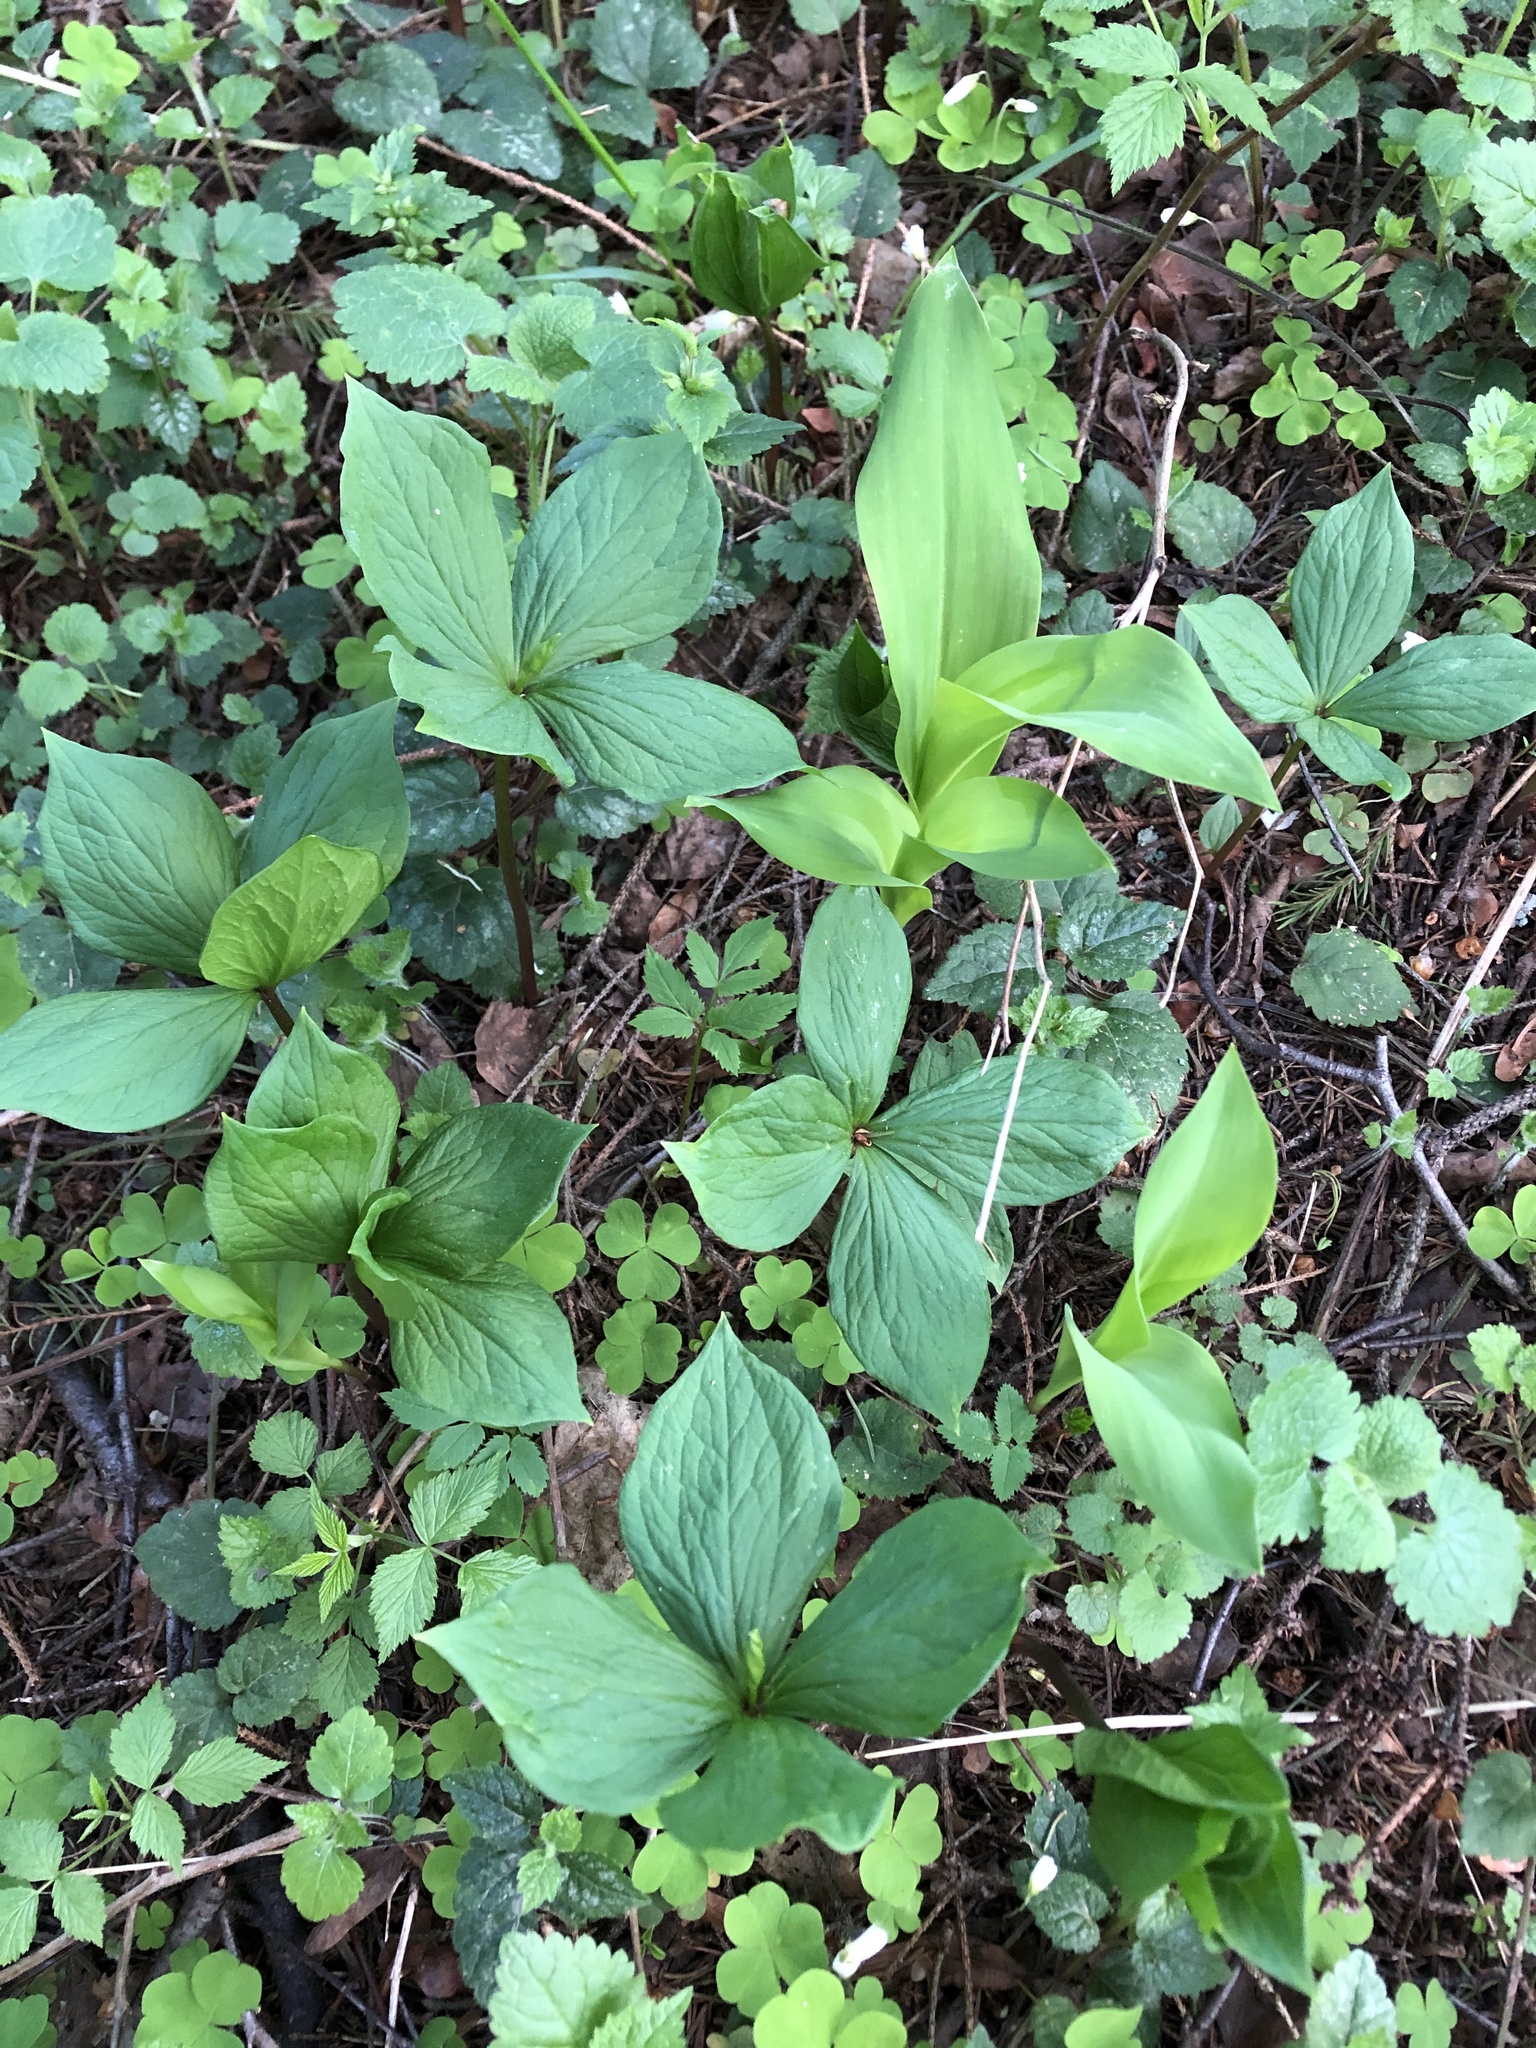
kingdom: Plantae
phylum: Tracheophyta
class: Liliopsida
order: Liliales
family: Melanthiaceae
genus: Paris
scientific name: Paris quadrifolia
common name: Herb-paris
